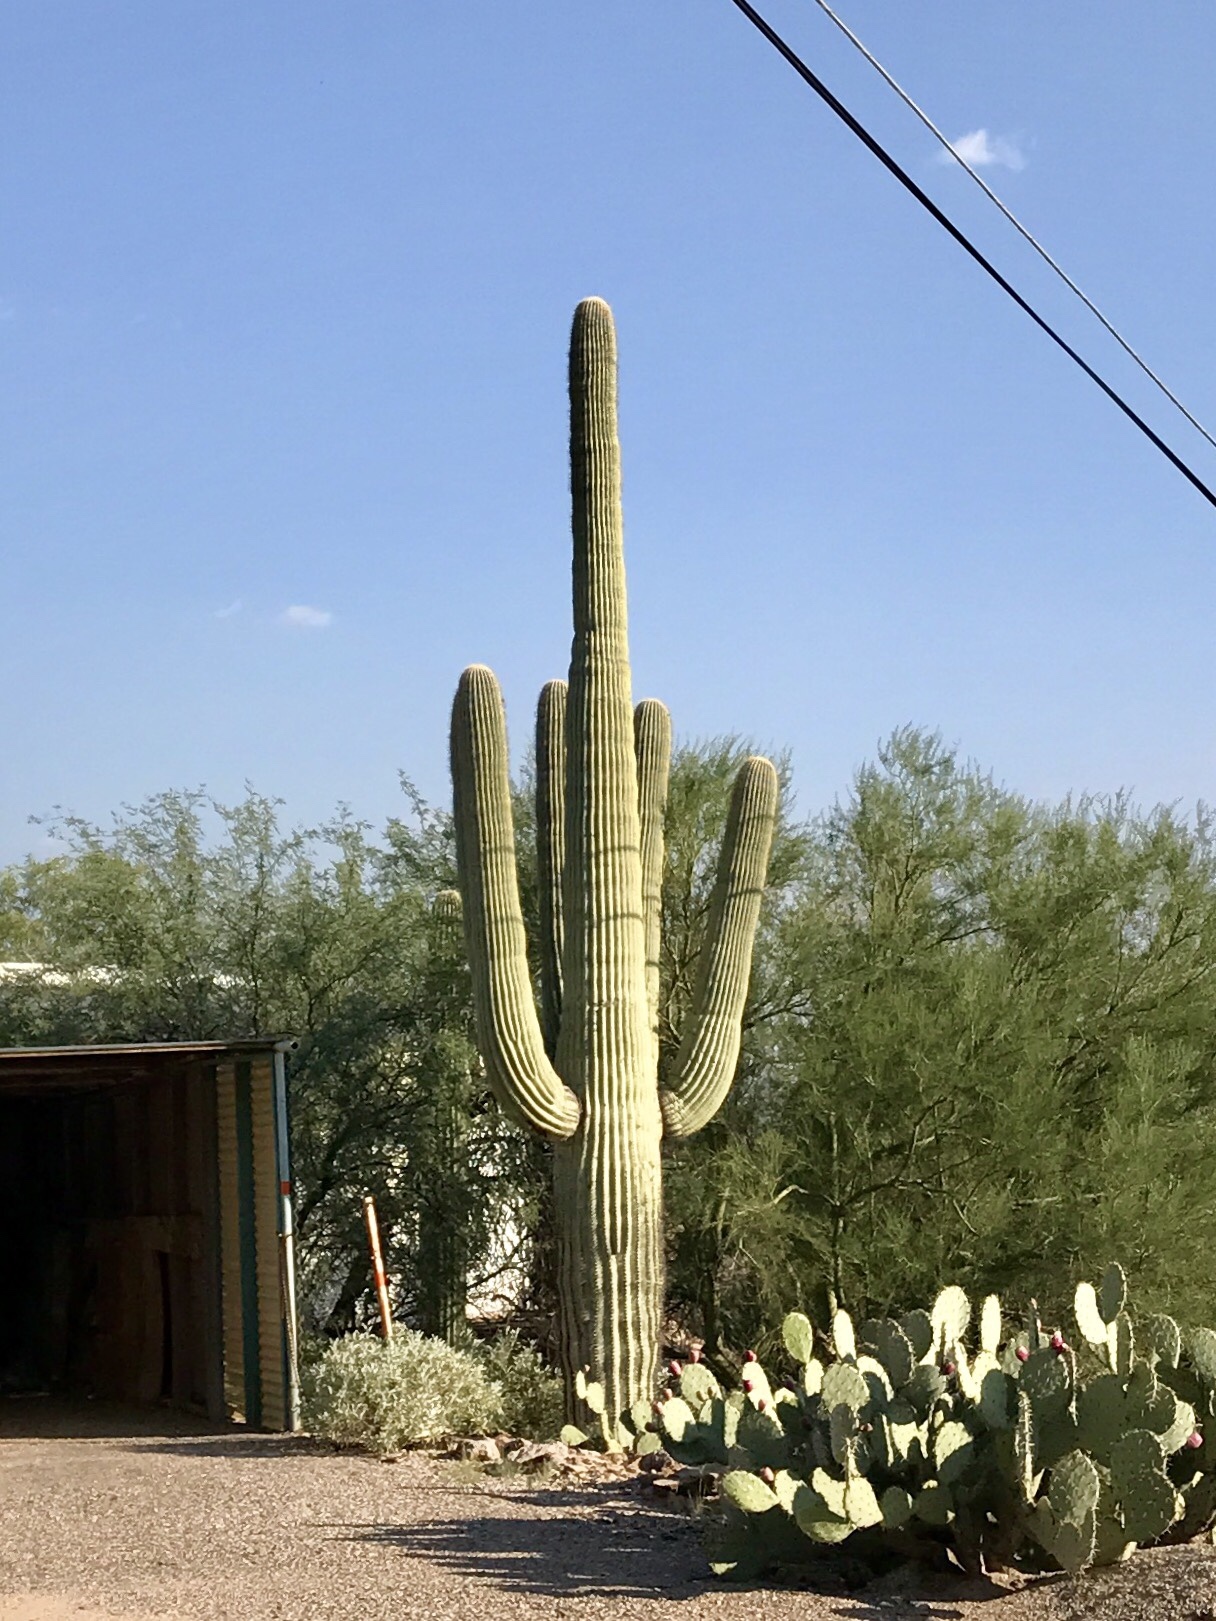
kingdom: Plantae
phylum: Tracheophyta
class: Magnoliopsida
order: Caryophyllales
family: Cactaceae
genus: Carnegiea
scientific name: Carnegiea gigantea
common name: Saguaro
